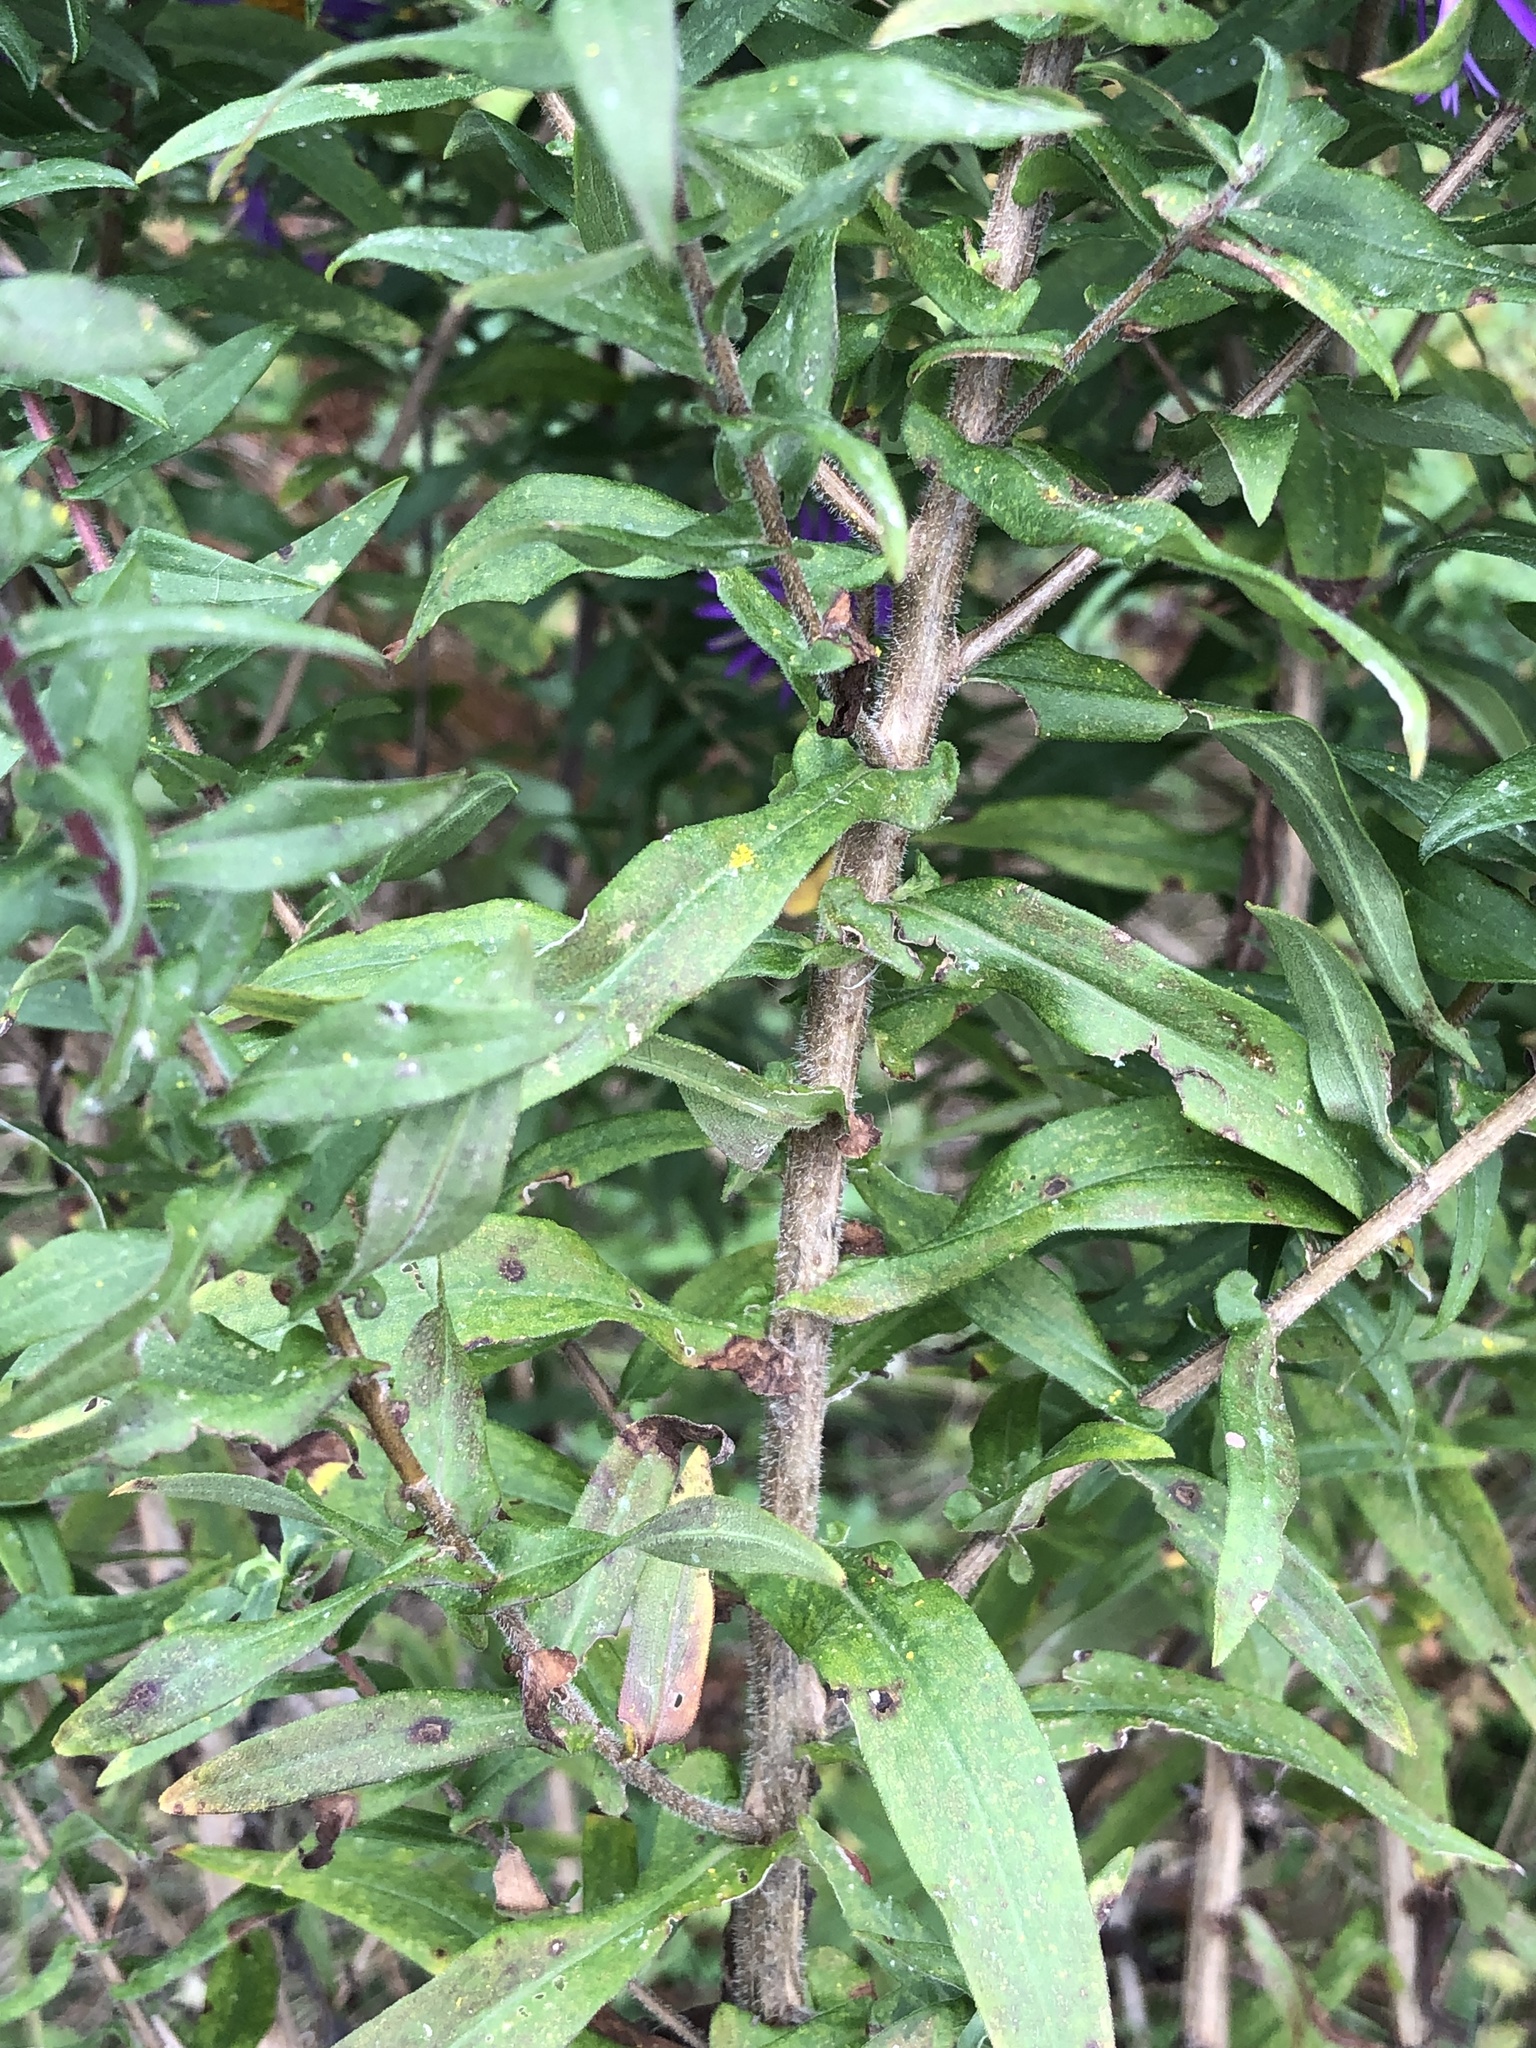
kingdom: Plantae
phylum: Tracheophyta
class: Magnoliopsida
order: Asterales
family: Asteraceae
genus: Symphyotrichum
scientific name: Symphyotrichum novae-angliae
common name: Michaelmas daisy
